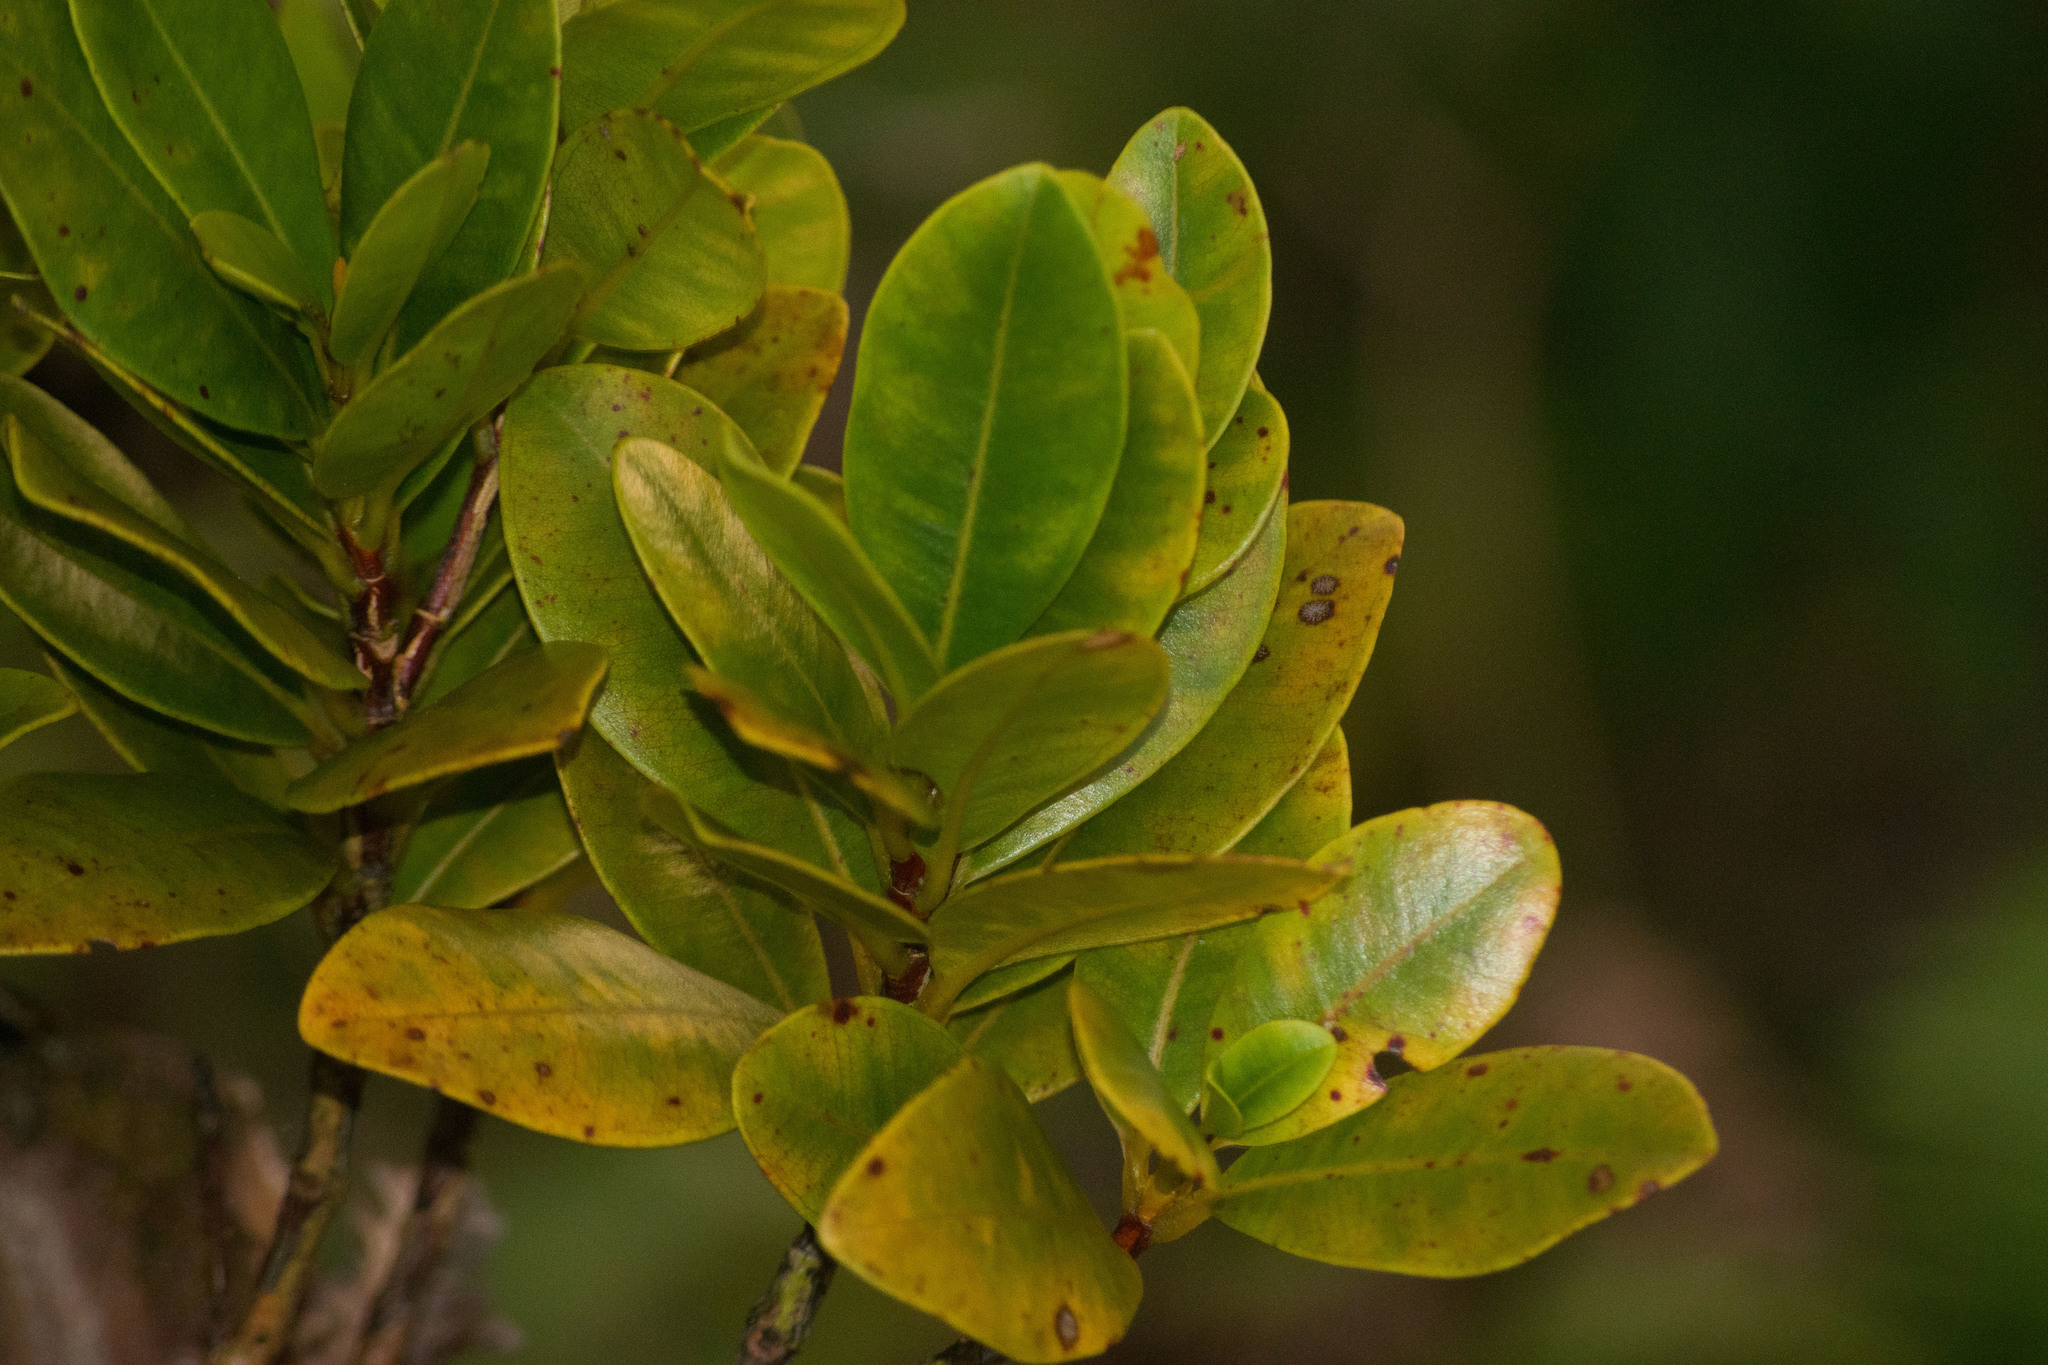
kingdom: Plantae
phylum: Tracheophyta
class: Magnoliopsida
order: Myrtales
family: Myrtaceae
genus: Syzygium
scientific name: Syzygium sandwicense
